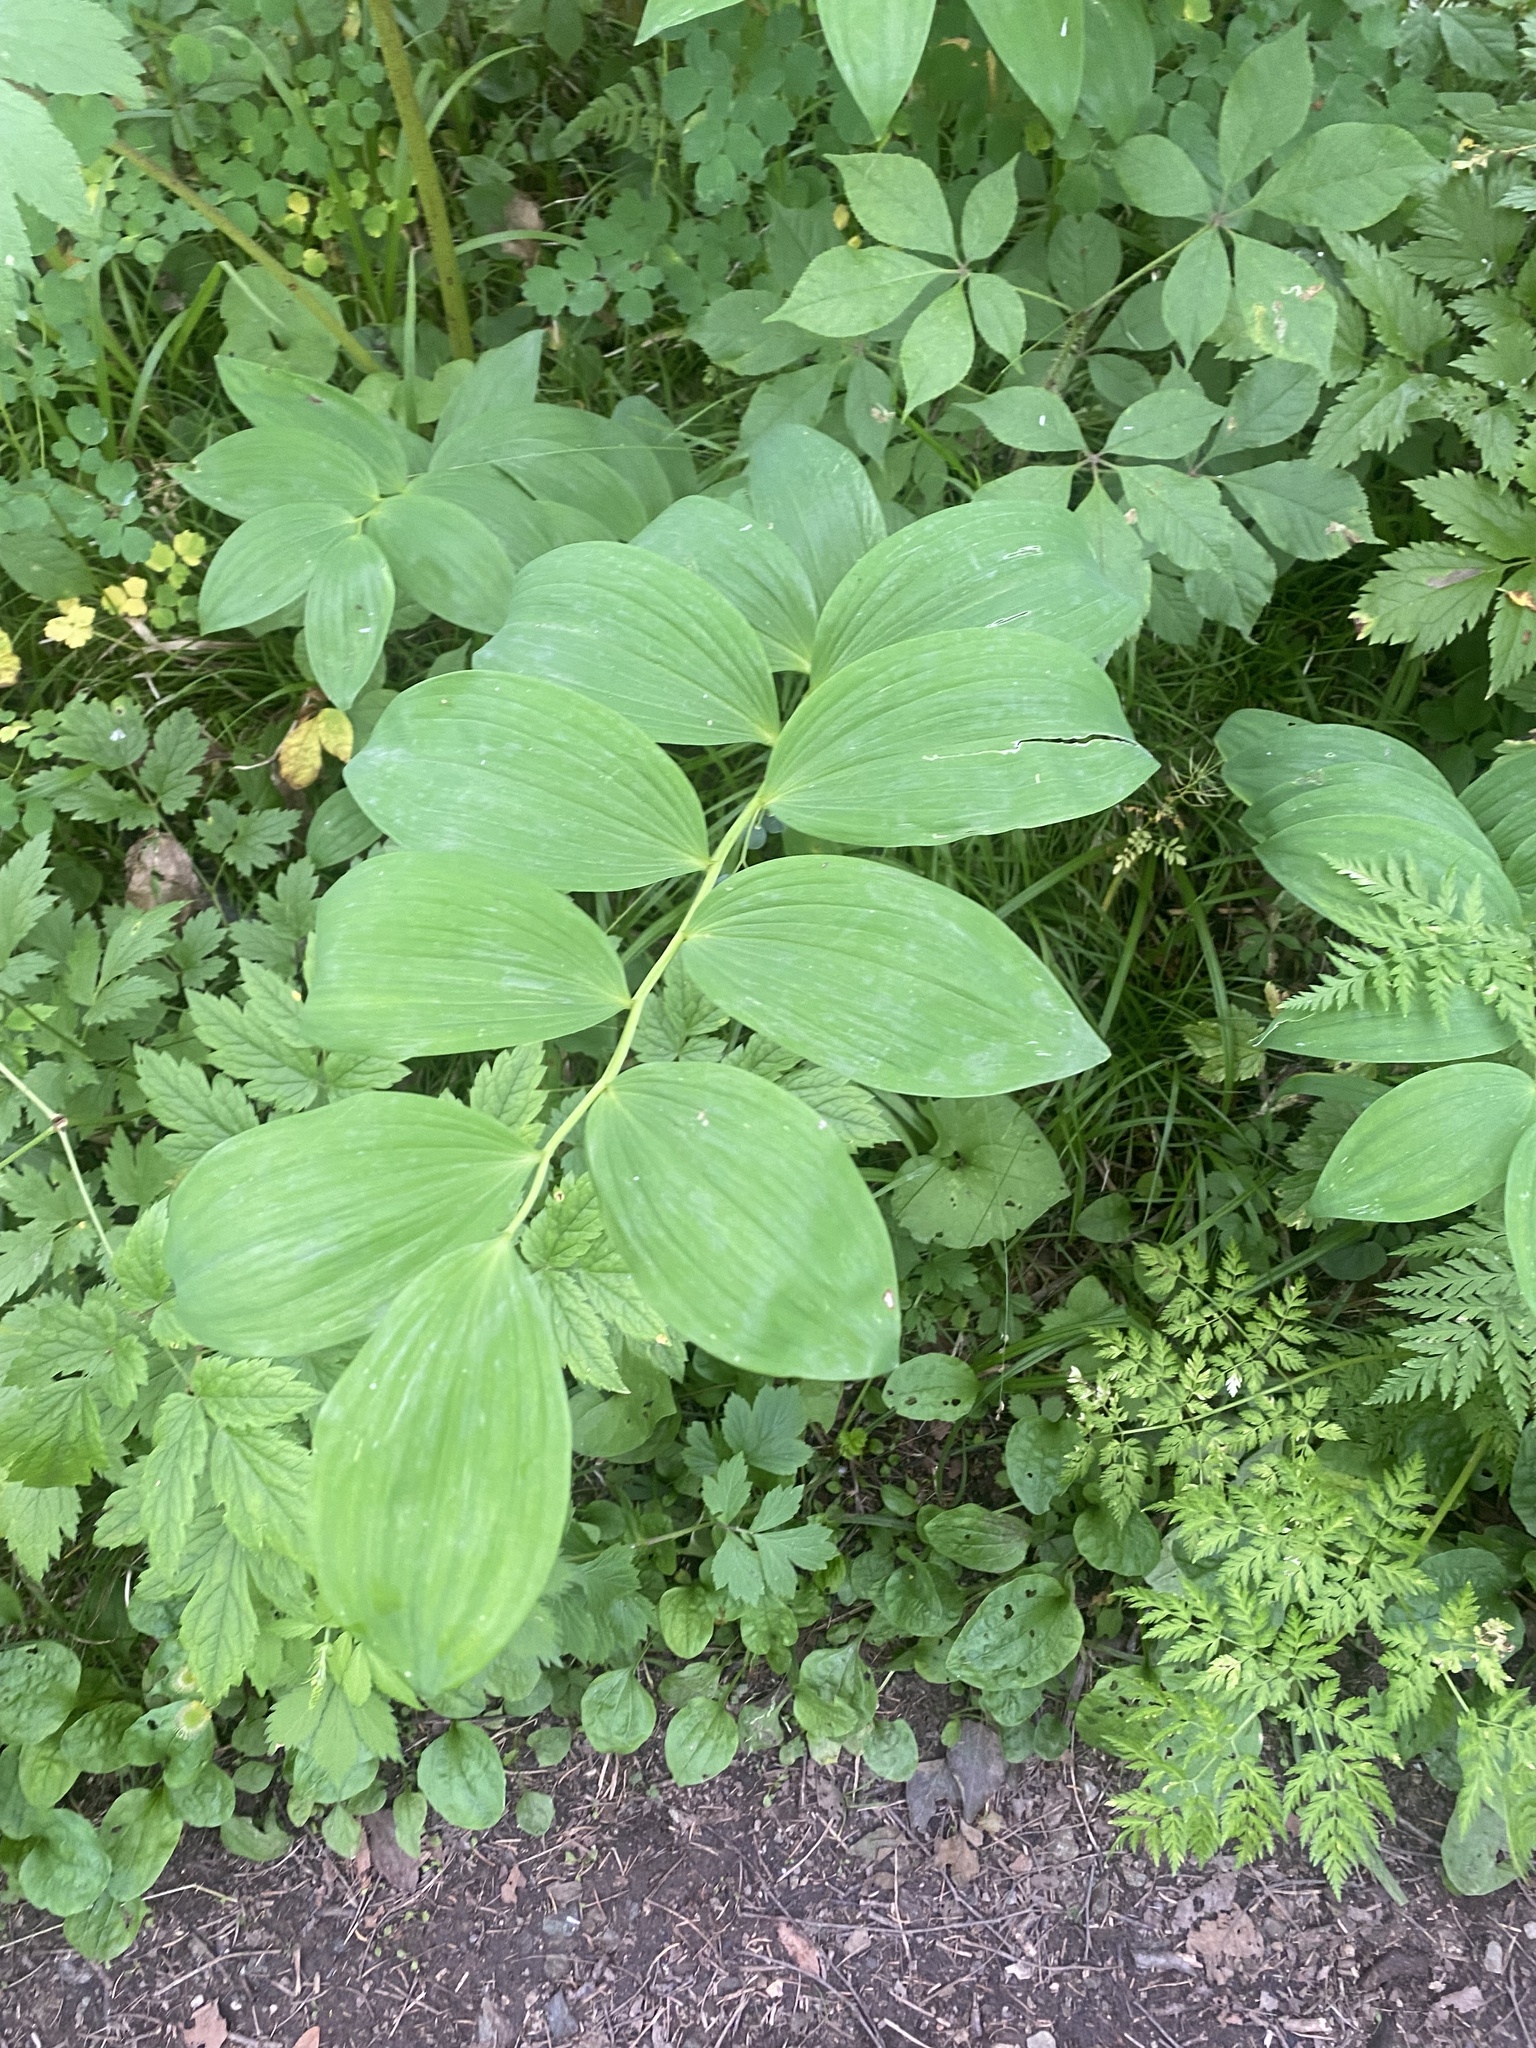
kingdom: Plantae
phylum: Tracheophyta
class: Liliopsida
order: Asparagales
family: Asparagaceae
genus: Polygonatum
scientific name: Polygonatum odoratum
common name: Angular solomon's-seal
